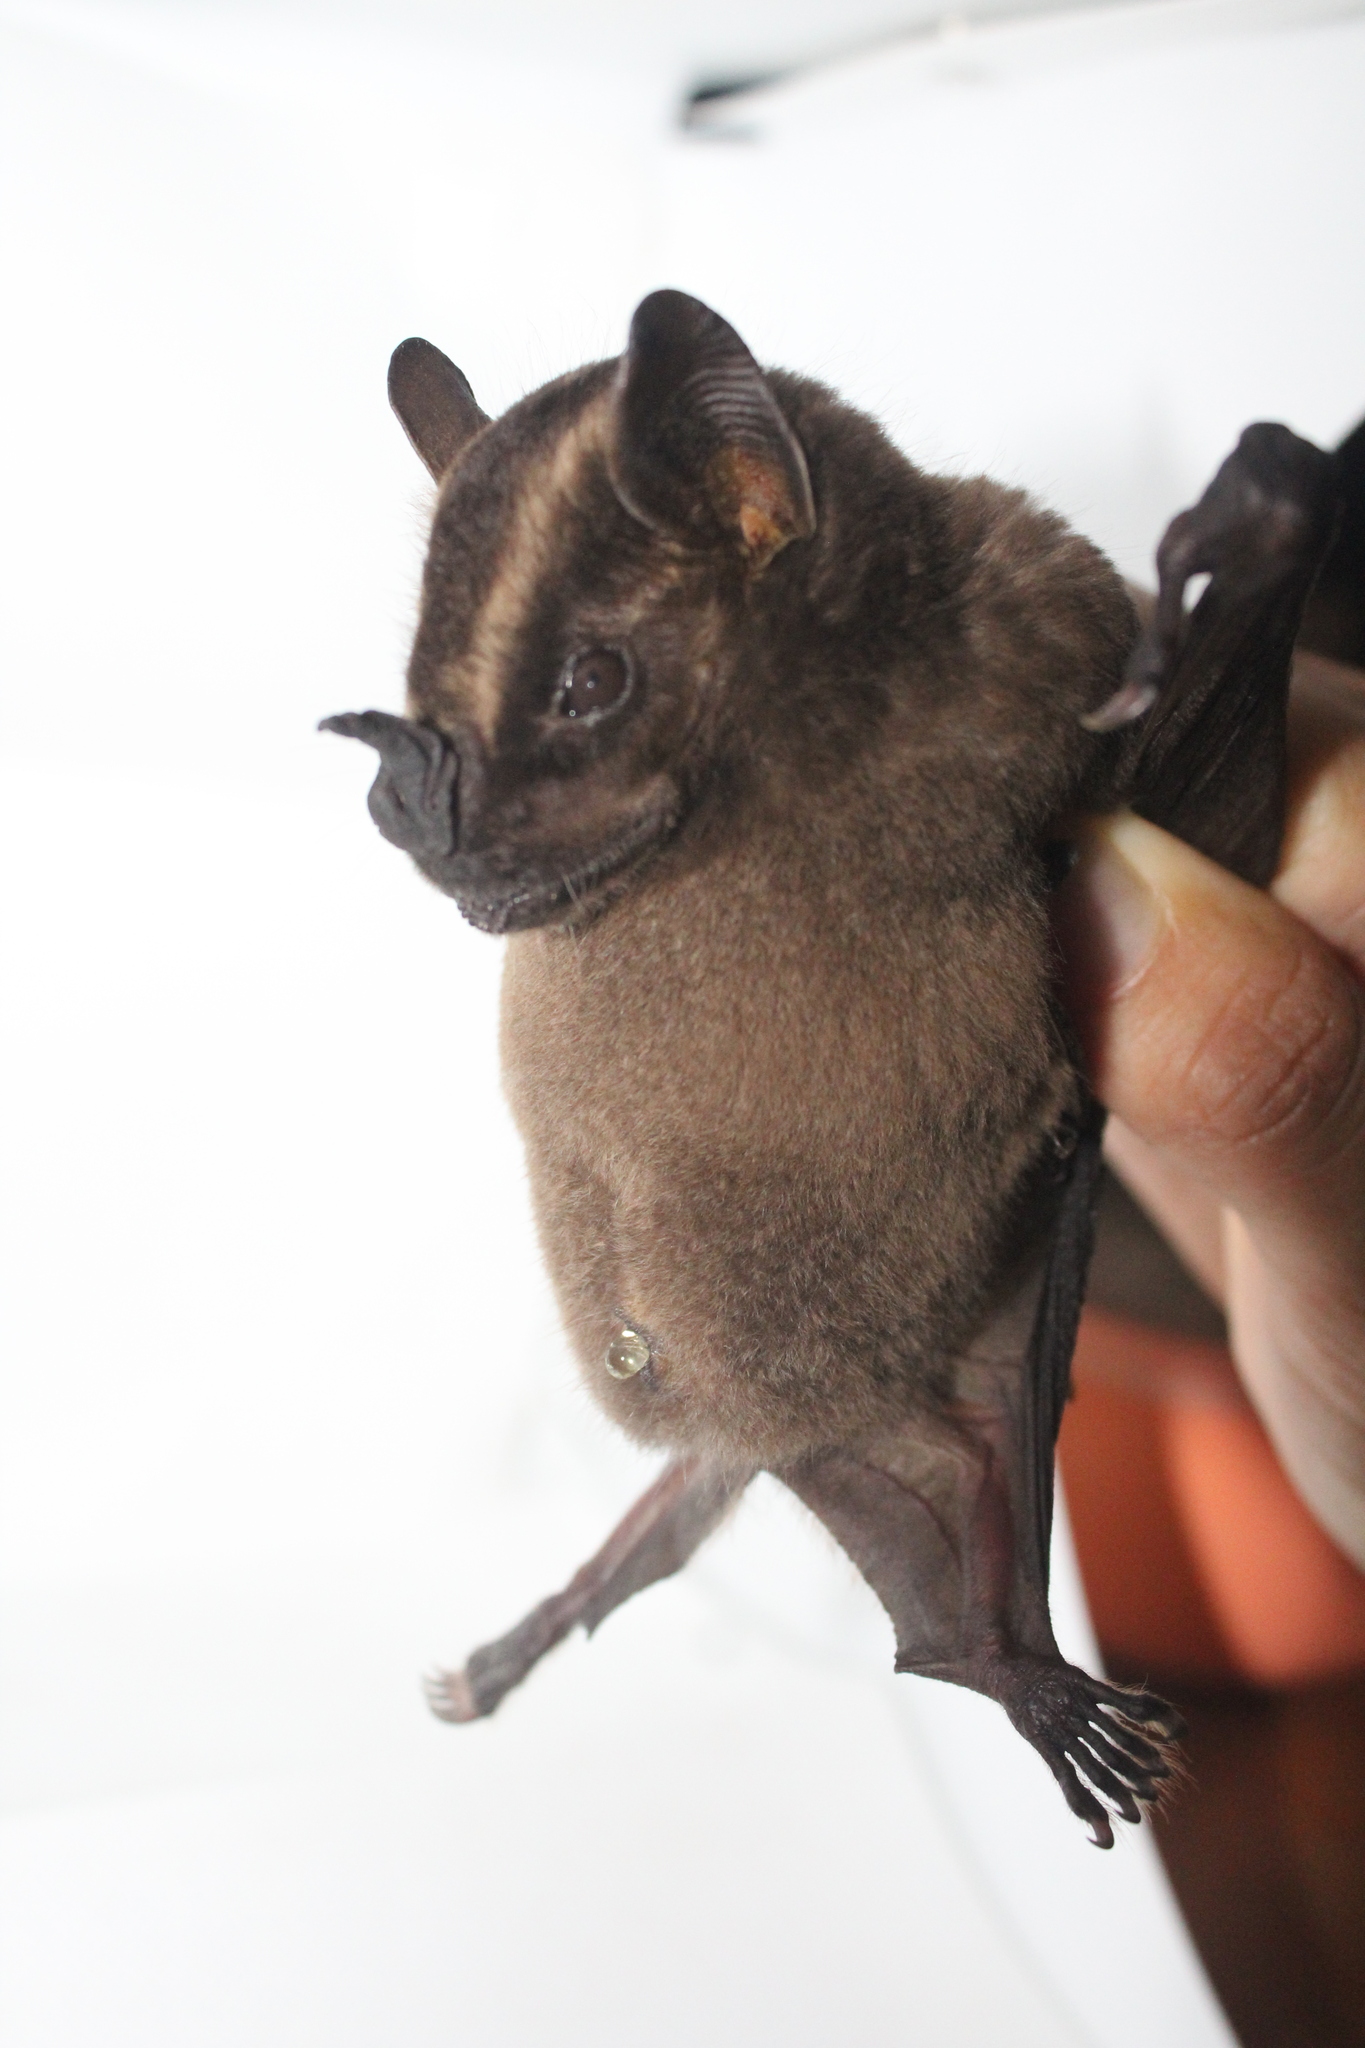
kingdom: Animalia
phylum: Chordata
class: Mammalia
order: Chiroptera
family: Phyllostomidae
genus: Platyrrhinus
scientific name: Platyrrhinus vittatus
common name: Greater broad-nosed bat
